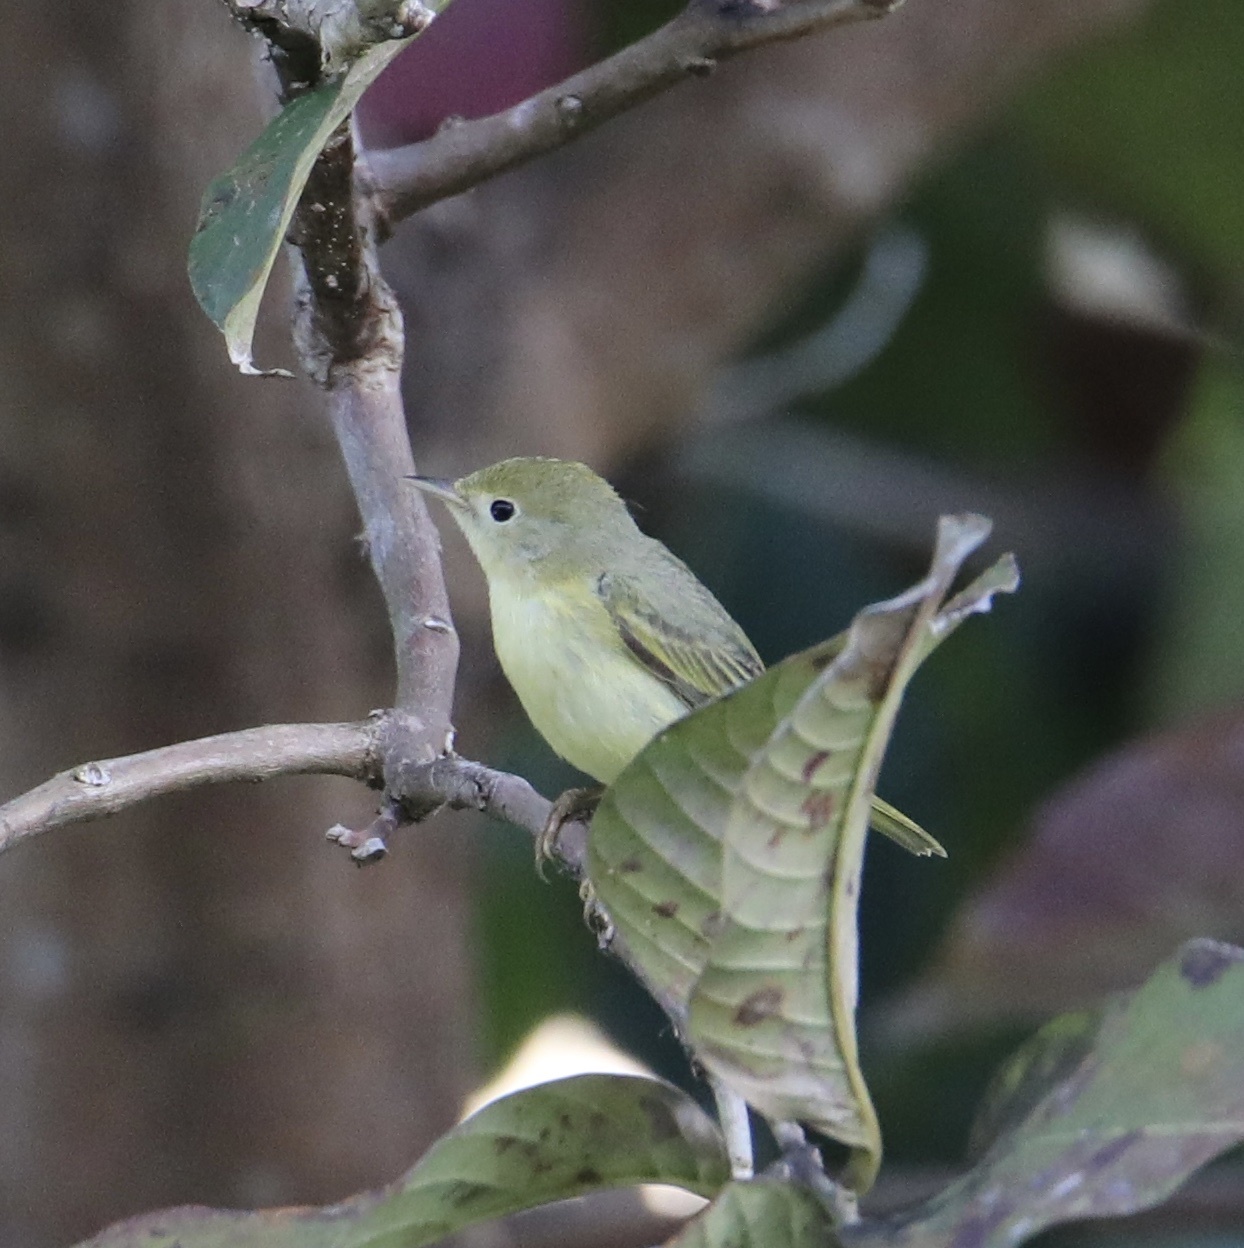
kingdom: Animalia
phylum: Chordata
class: Aves
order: Passeriformes
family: Parulidae
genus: Setophaga
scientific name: Setophaga petechia
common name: Yellow warbler
